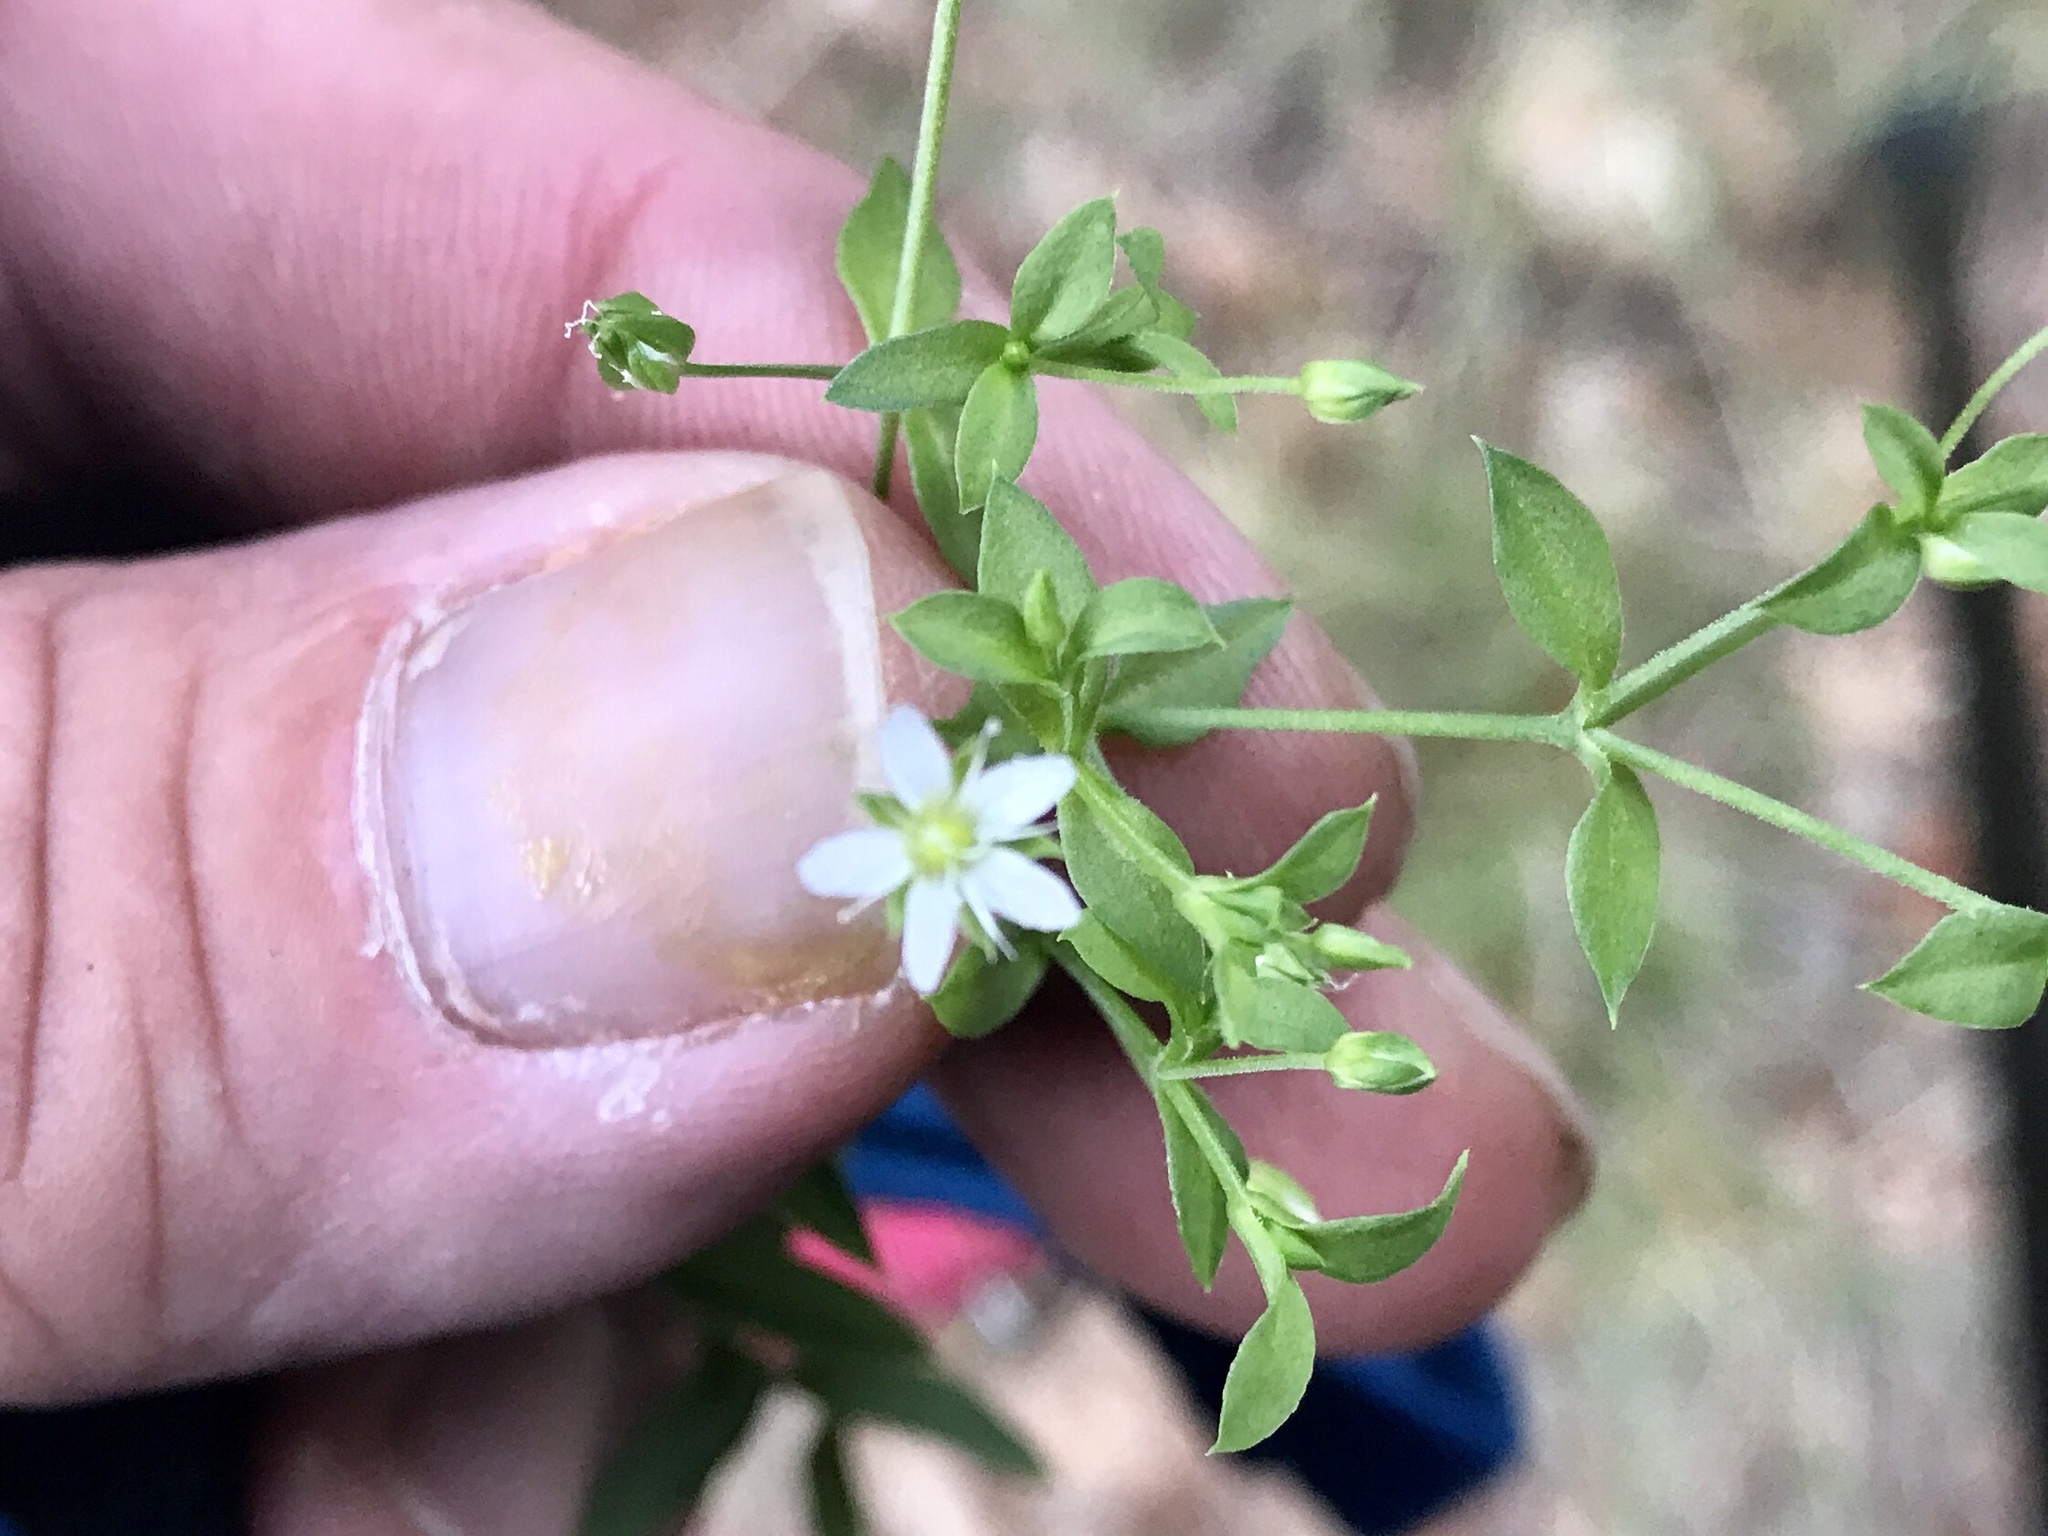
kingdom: Plantae
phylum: Tracheophyta
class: Magnoliopsida
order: Caryophyllales
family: Caryophyllaceae
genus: Arenaria
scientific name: Arenaria lanuginosa
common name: Spread sandwort
